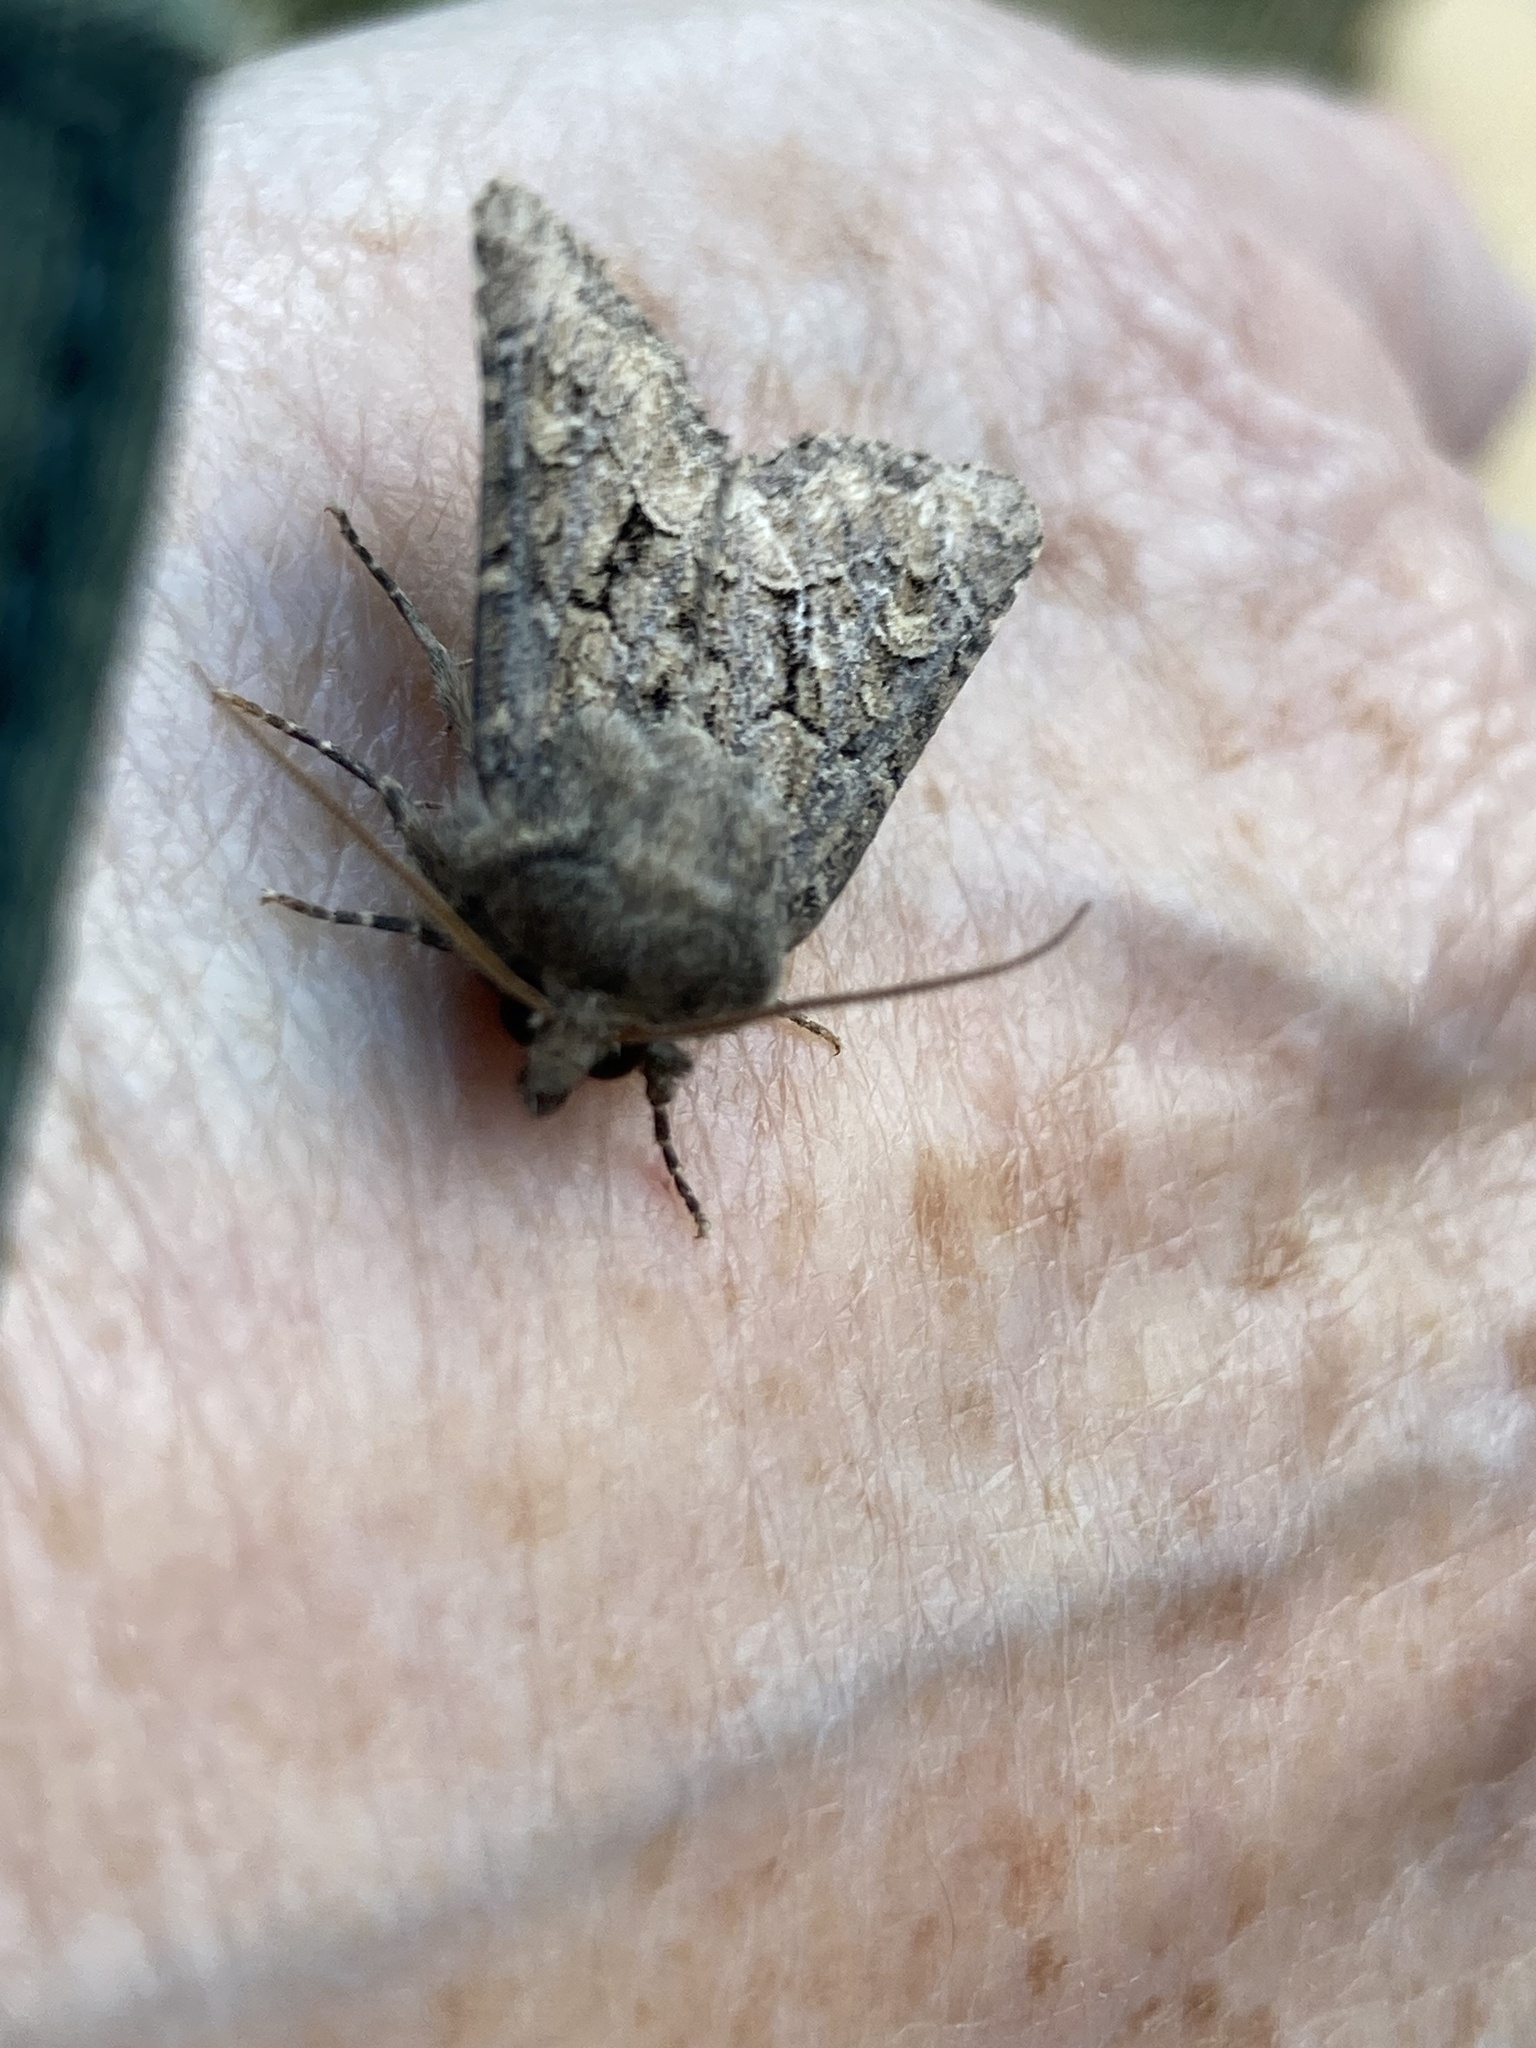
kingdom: Animalia
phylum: Arthropoda
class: Insecta
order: Lepidoptera
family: Noctuidae
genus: Luperina
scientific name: Luperina testacea
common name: Flounced rustic
